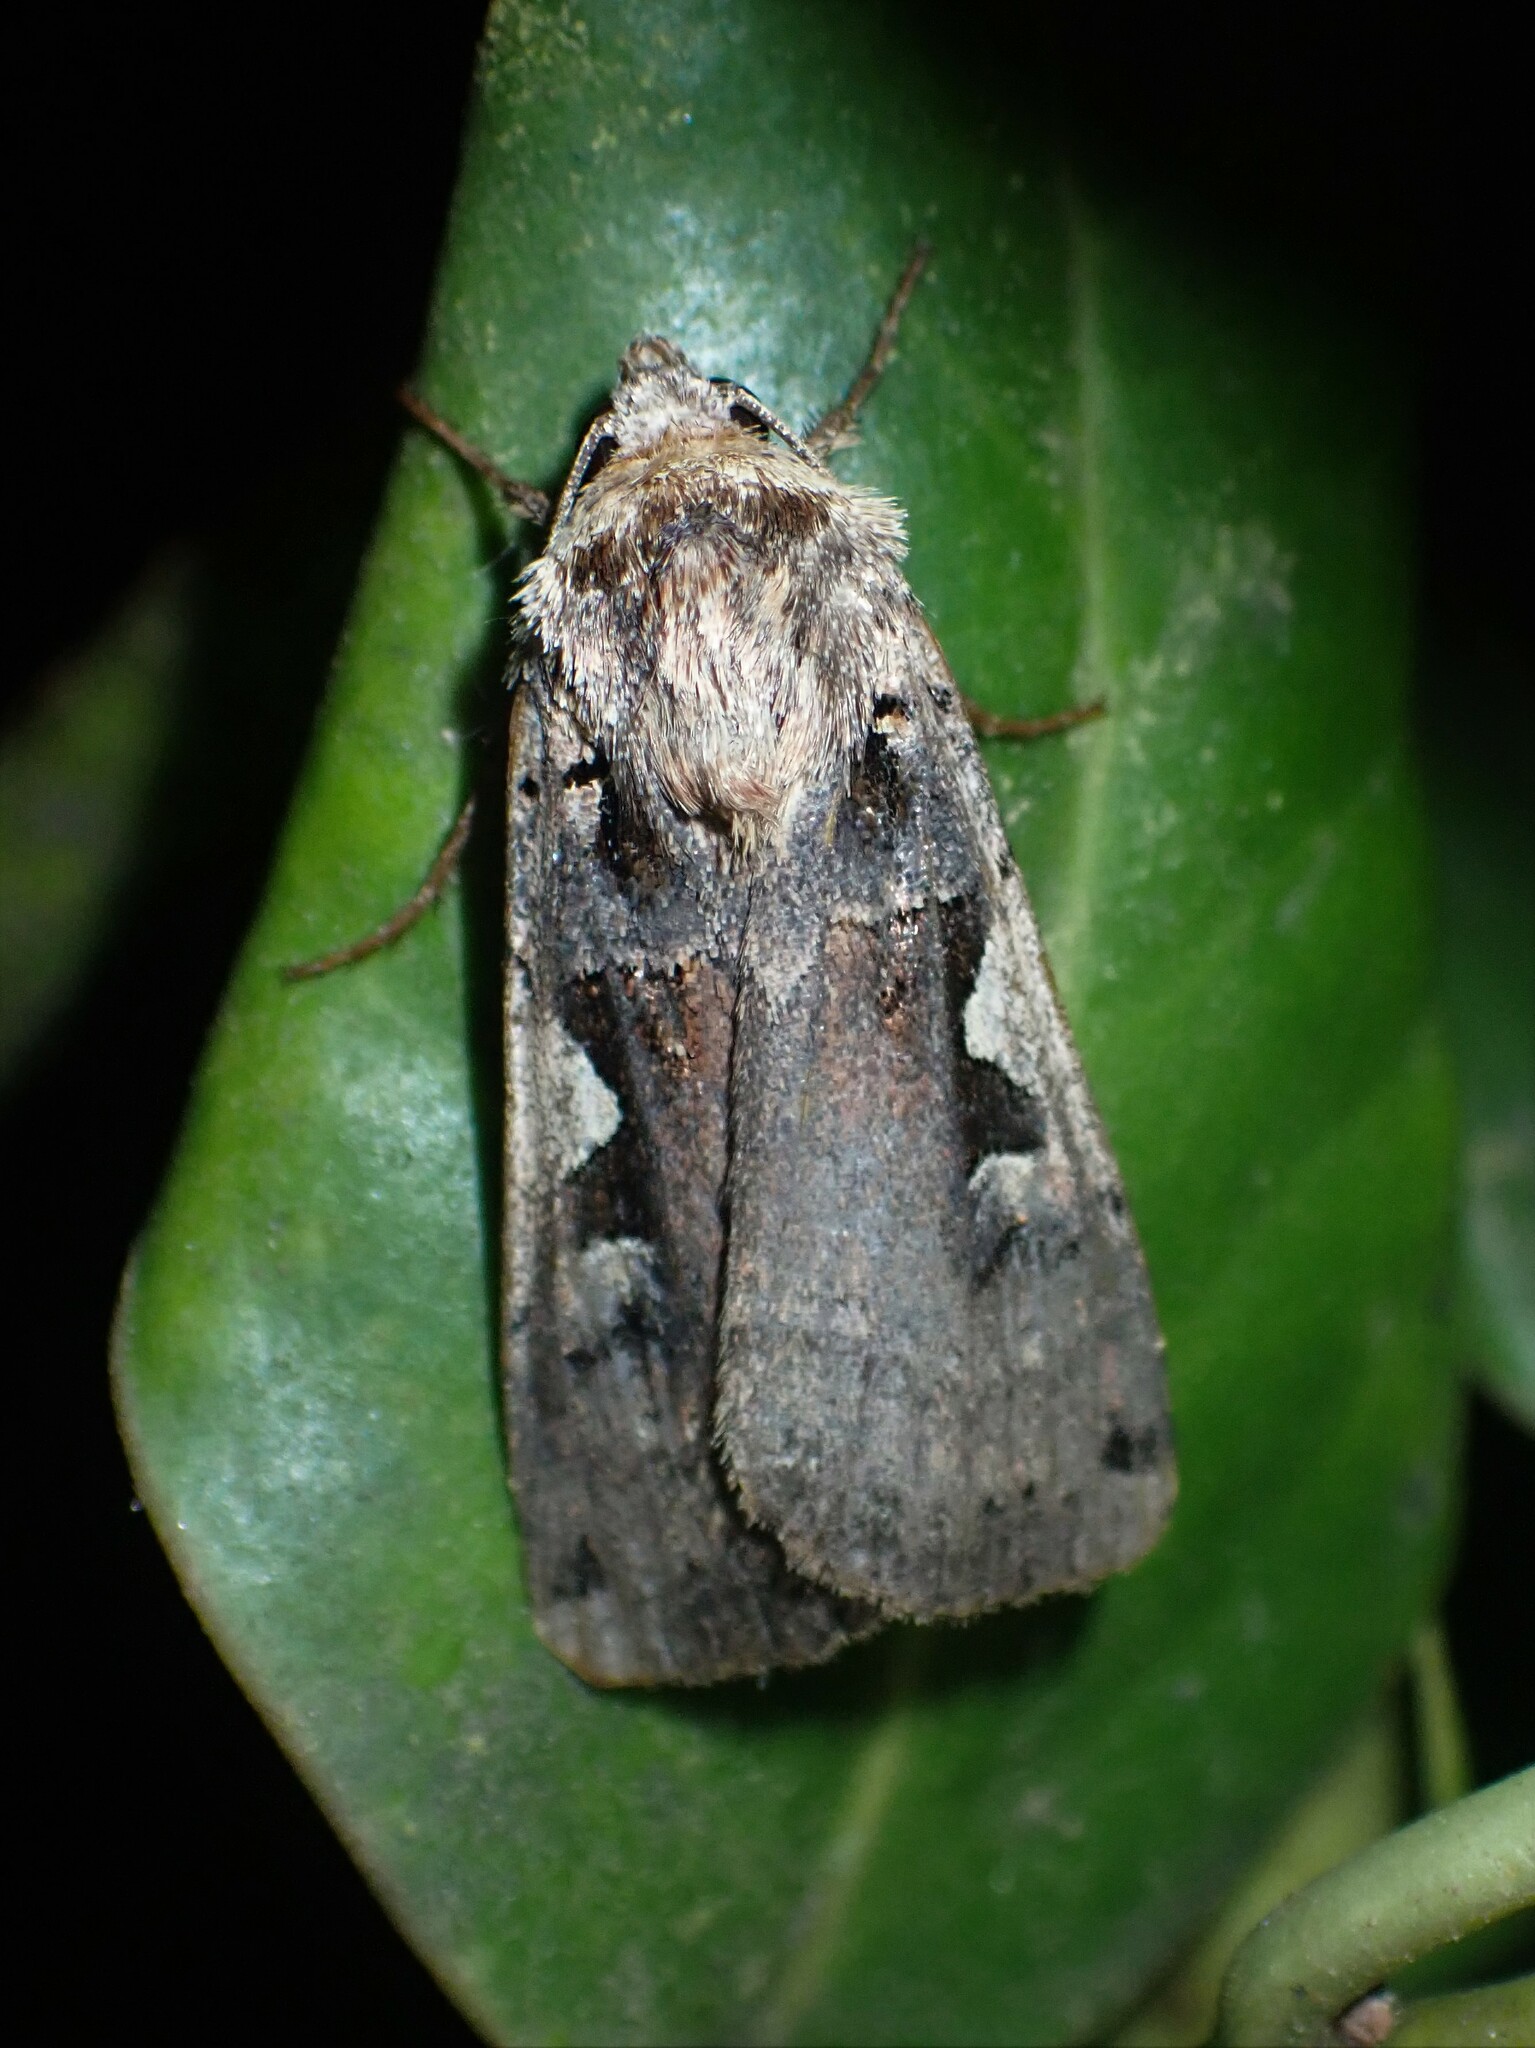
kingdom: Animalia
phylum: Arthropoda
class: Insecta
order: Lepidoptera
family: Noctuidae
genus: Xestia
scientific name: Xestia c-nigrum
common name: Setaceous hebrew character
